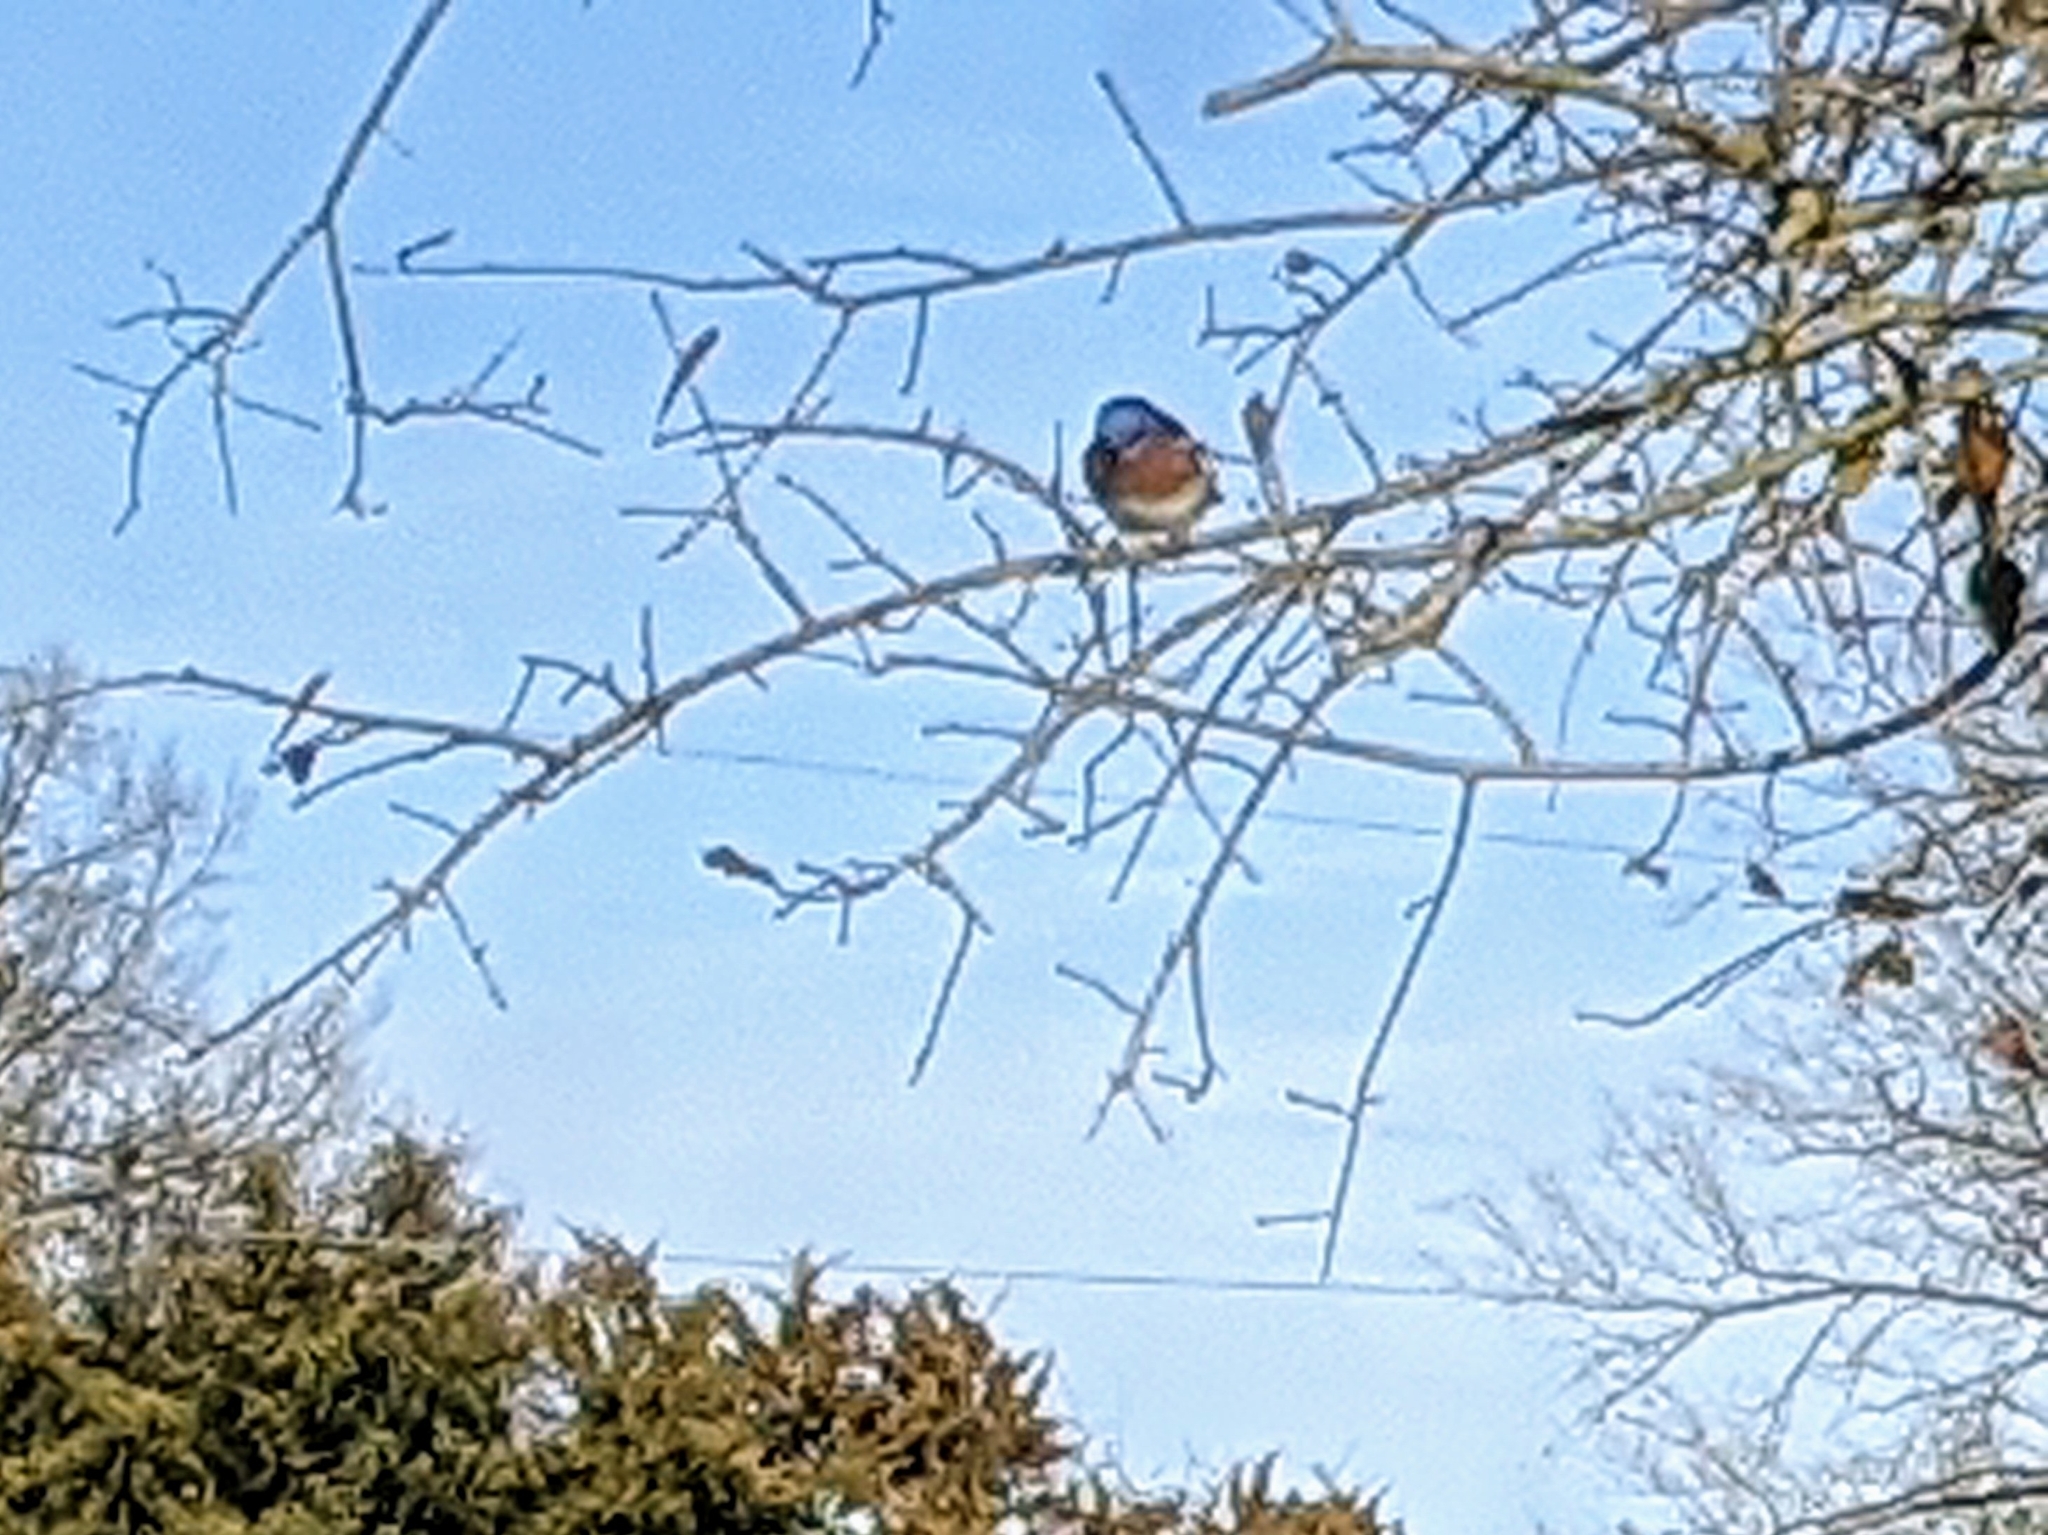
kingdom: Animalia
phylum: Chordata
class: Aves
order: Passeriformes
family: Turdidae
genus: Sialia
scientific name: Sialia sialis
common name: Eastern bluebird
